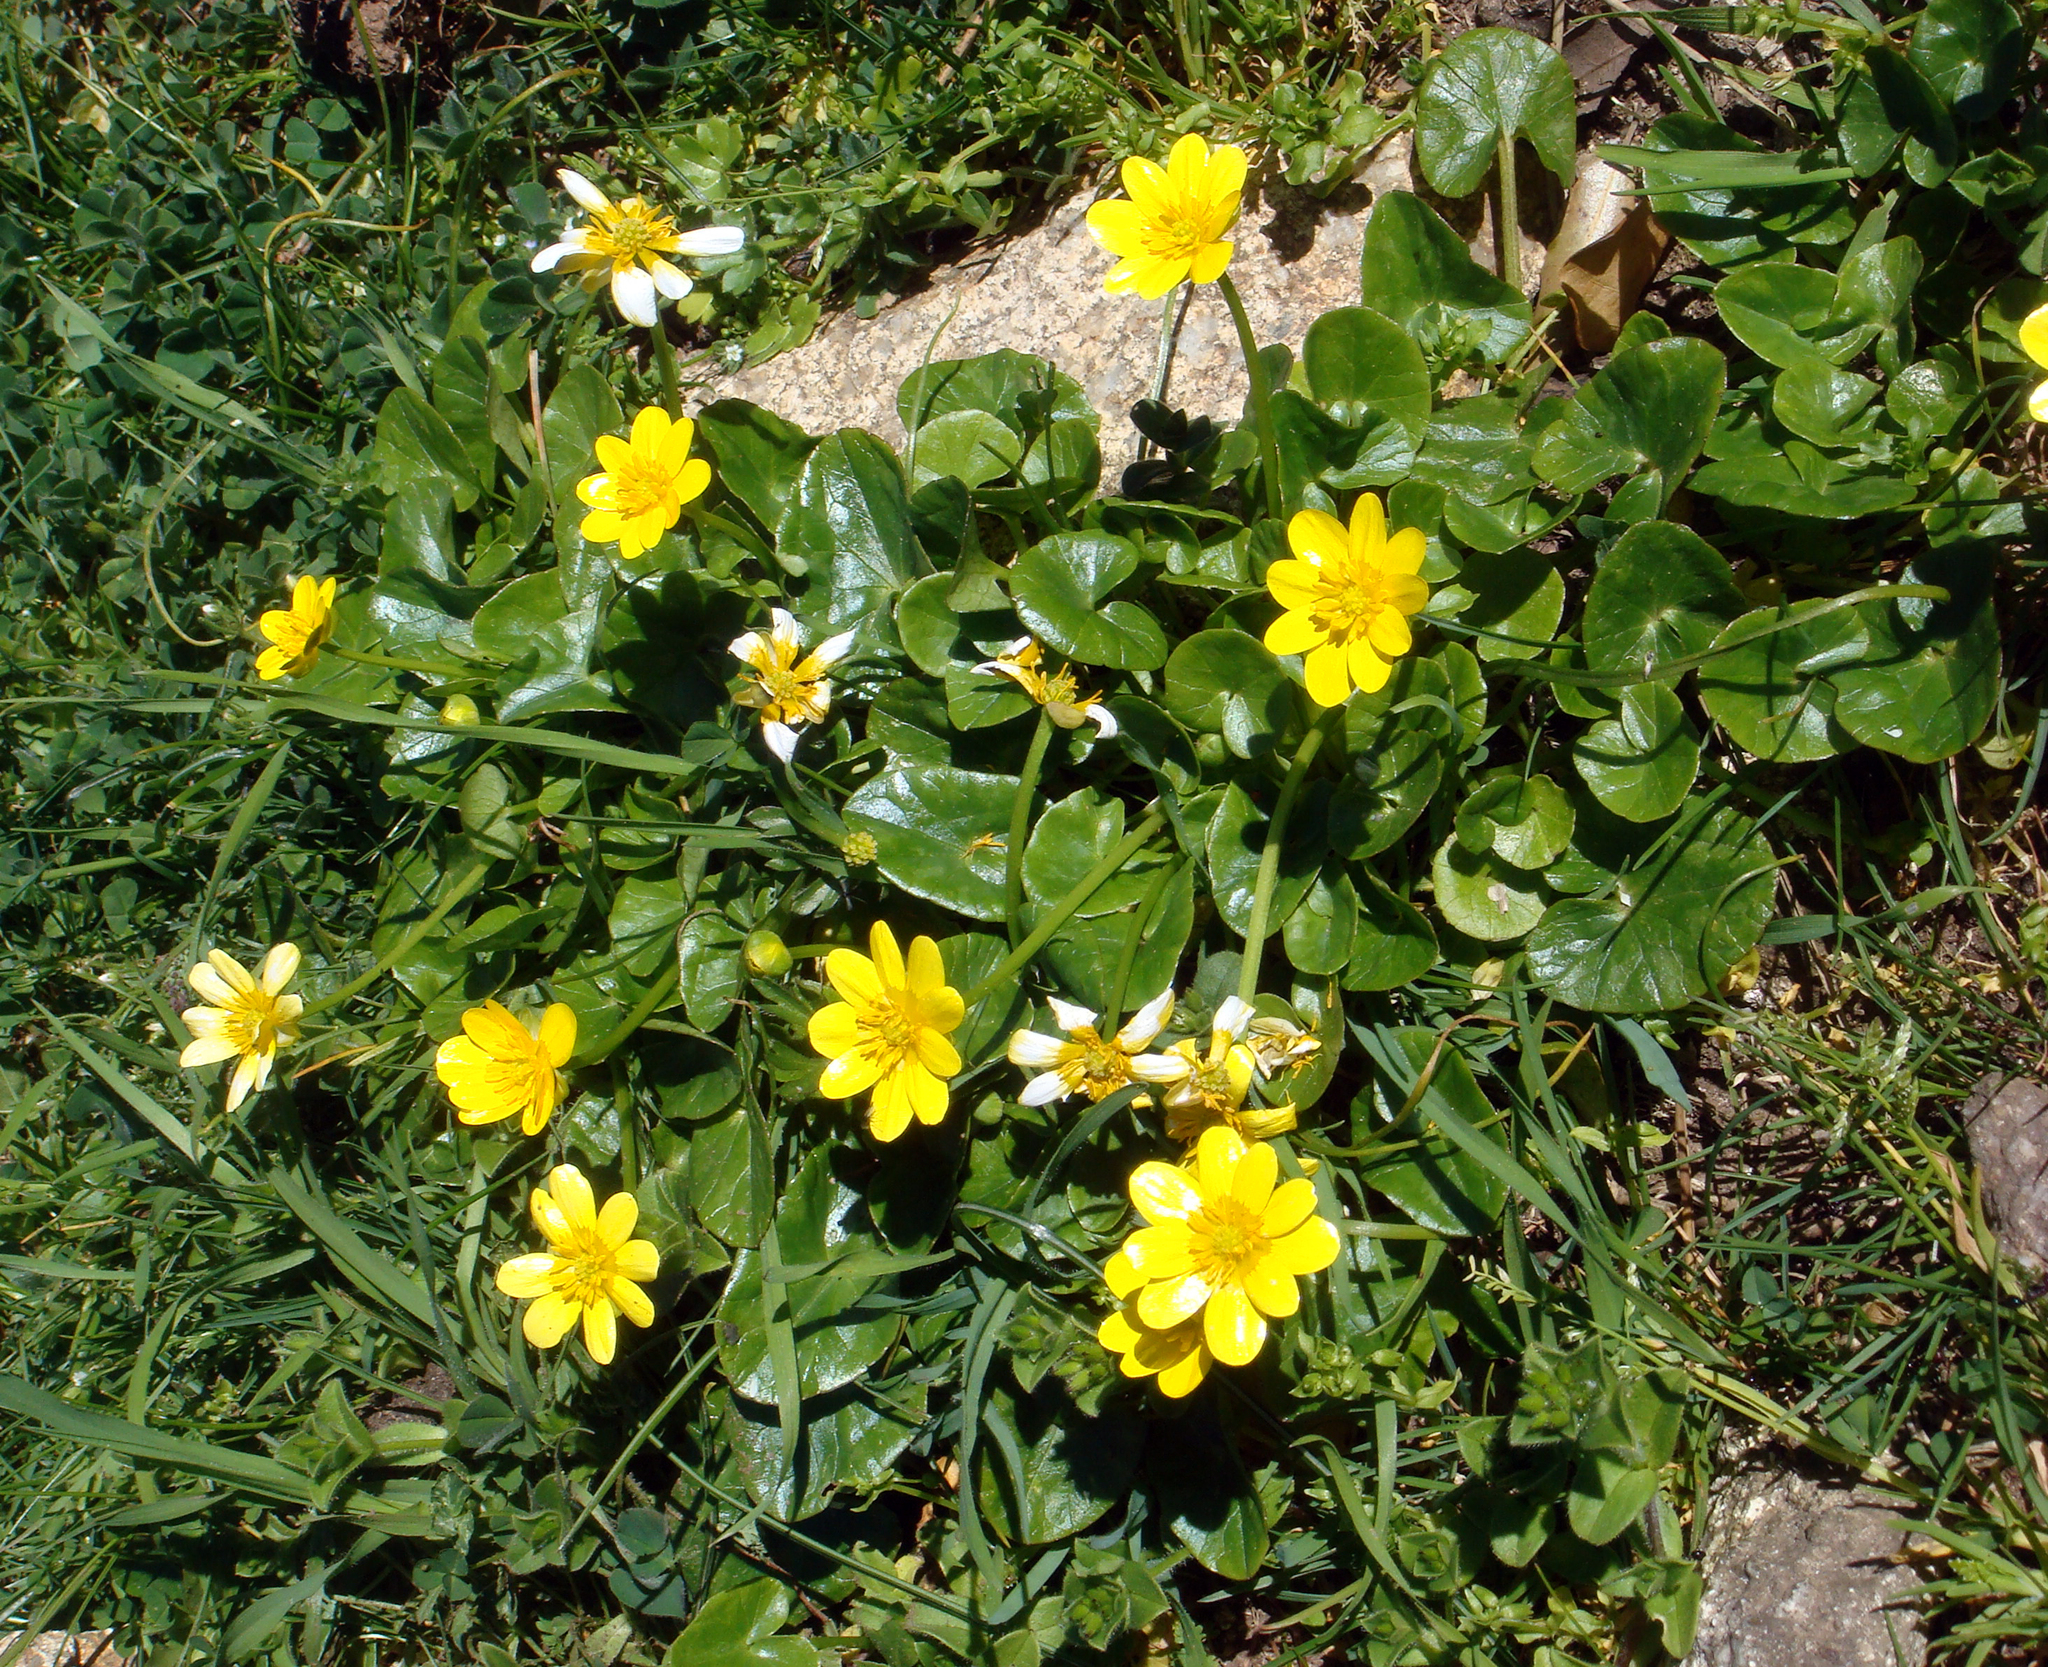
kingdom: Plantae
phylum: Tracheophyta
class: Magnoliopsida
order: Ranunculales
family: Ranunculaceae
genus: Ficaria
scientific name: Ficaria grandiflora
